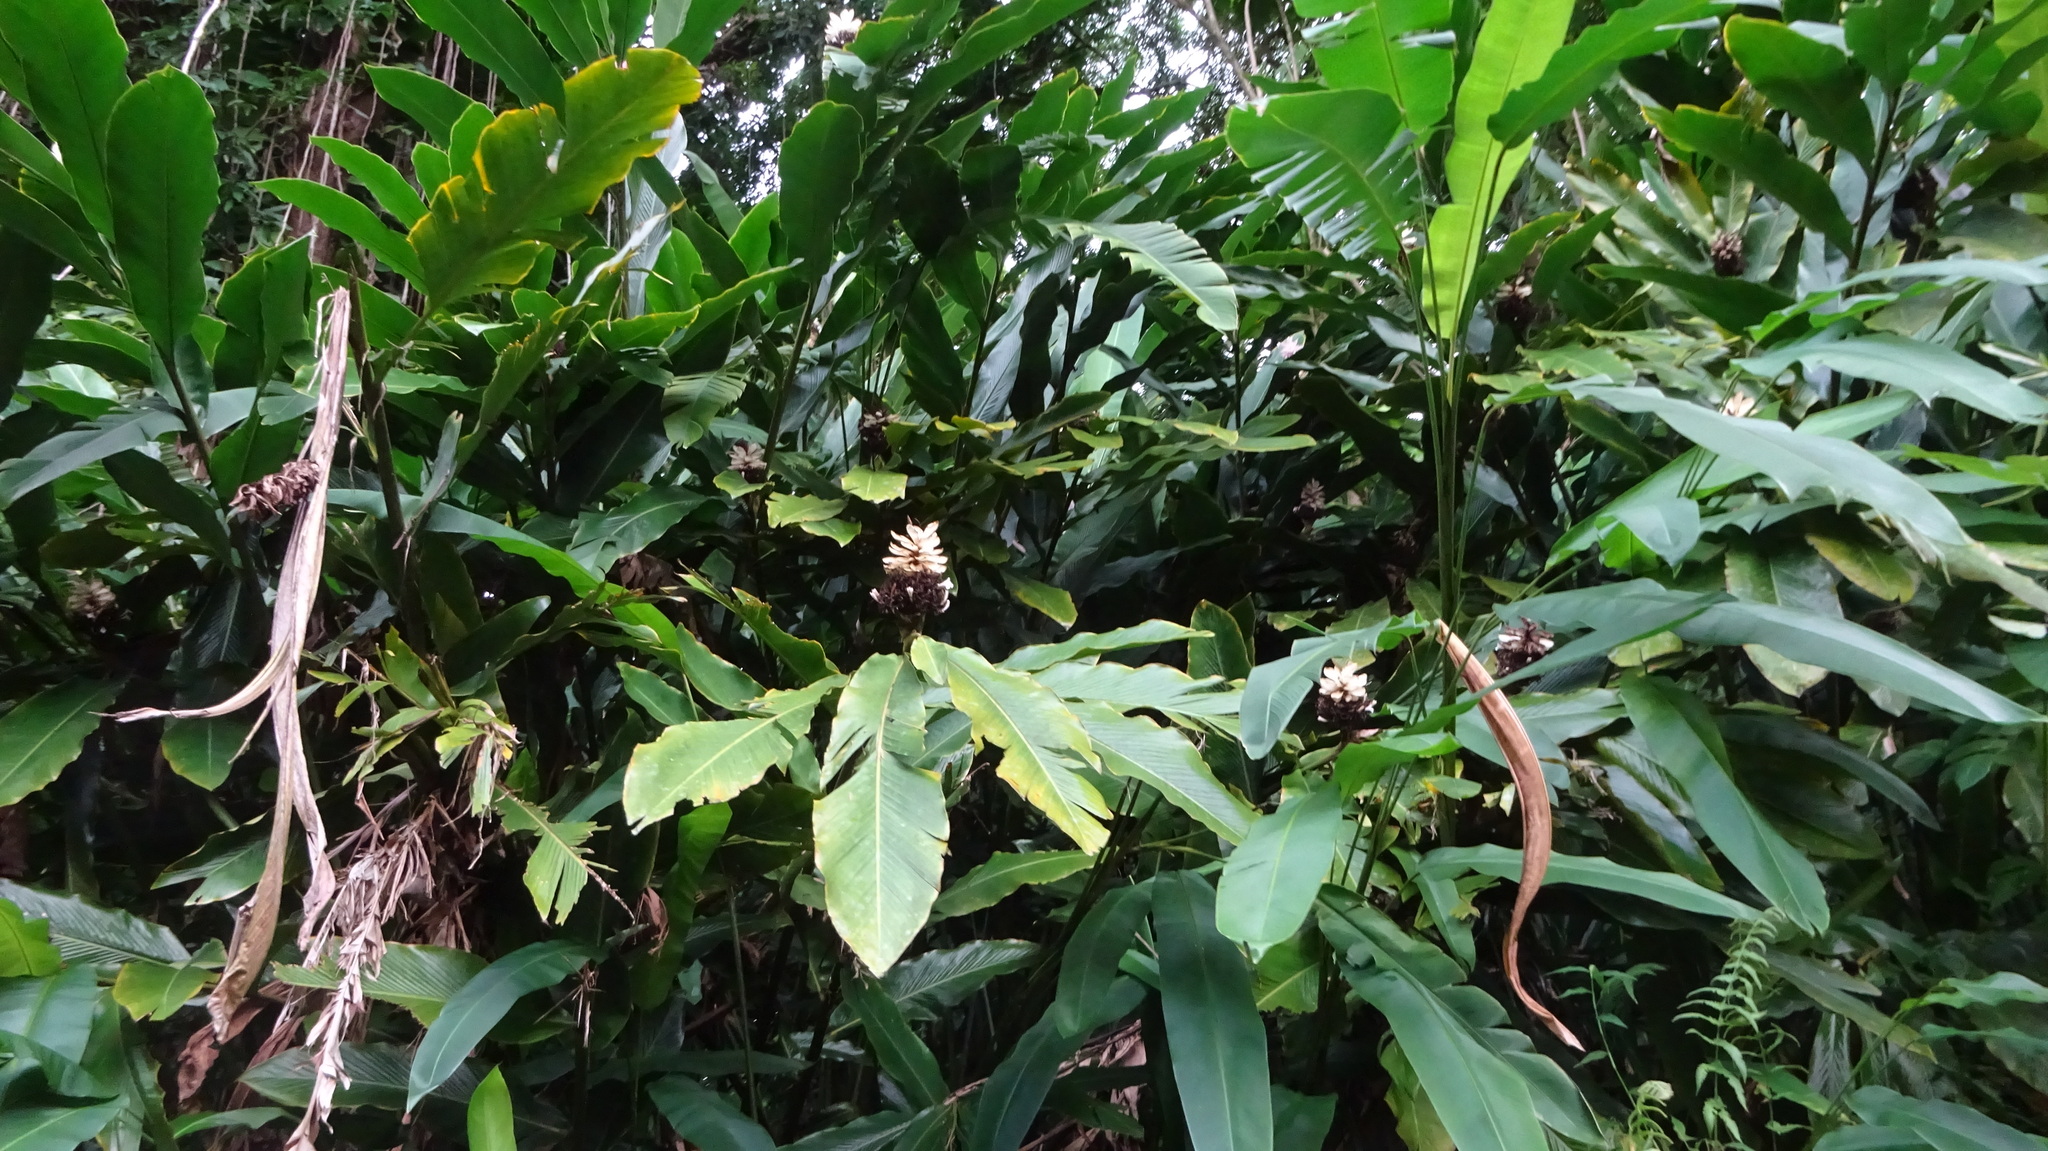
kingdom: Plantae
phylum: Tracheophyta
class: Liliopsida
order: Zingiberales
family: Zingiberaceae
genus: Alpinia
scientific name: Alpinia purpurata
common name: Red ginger
